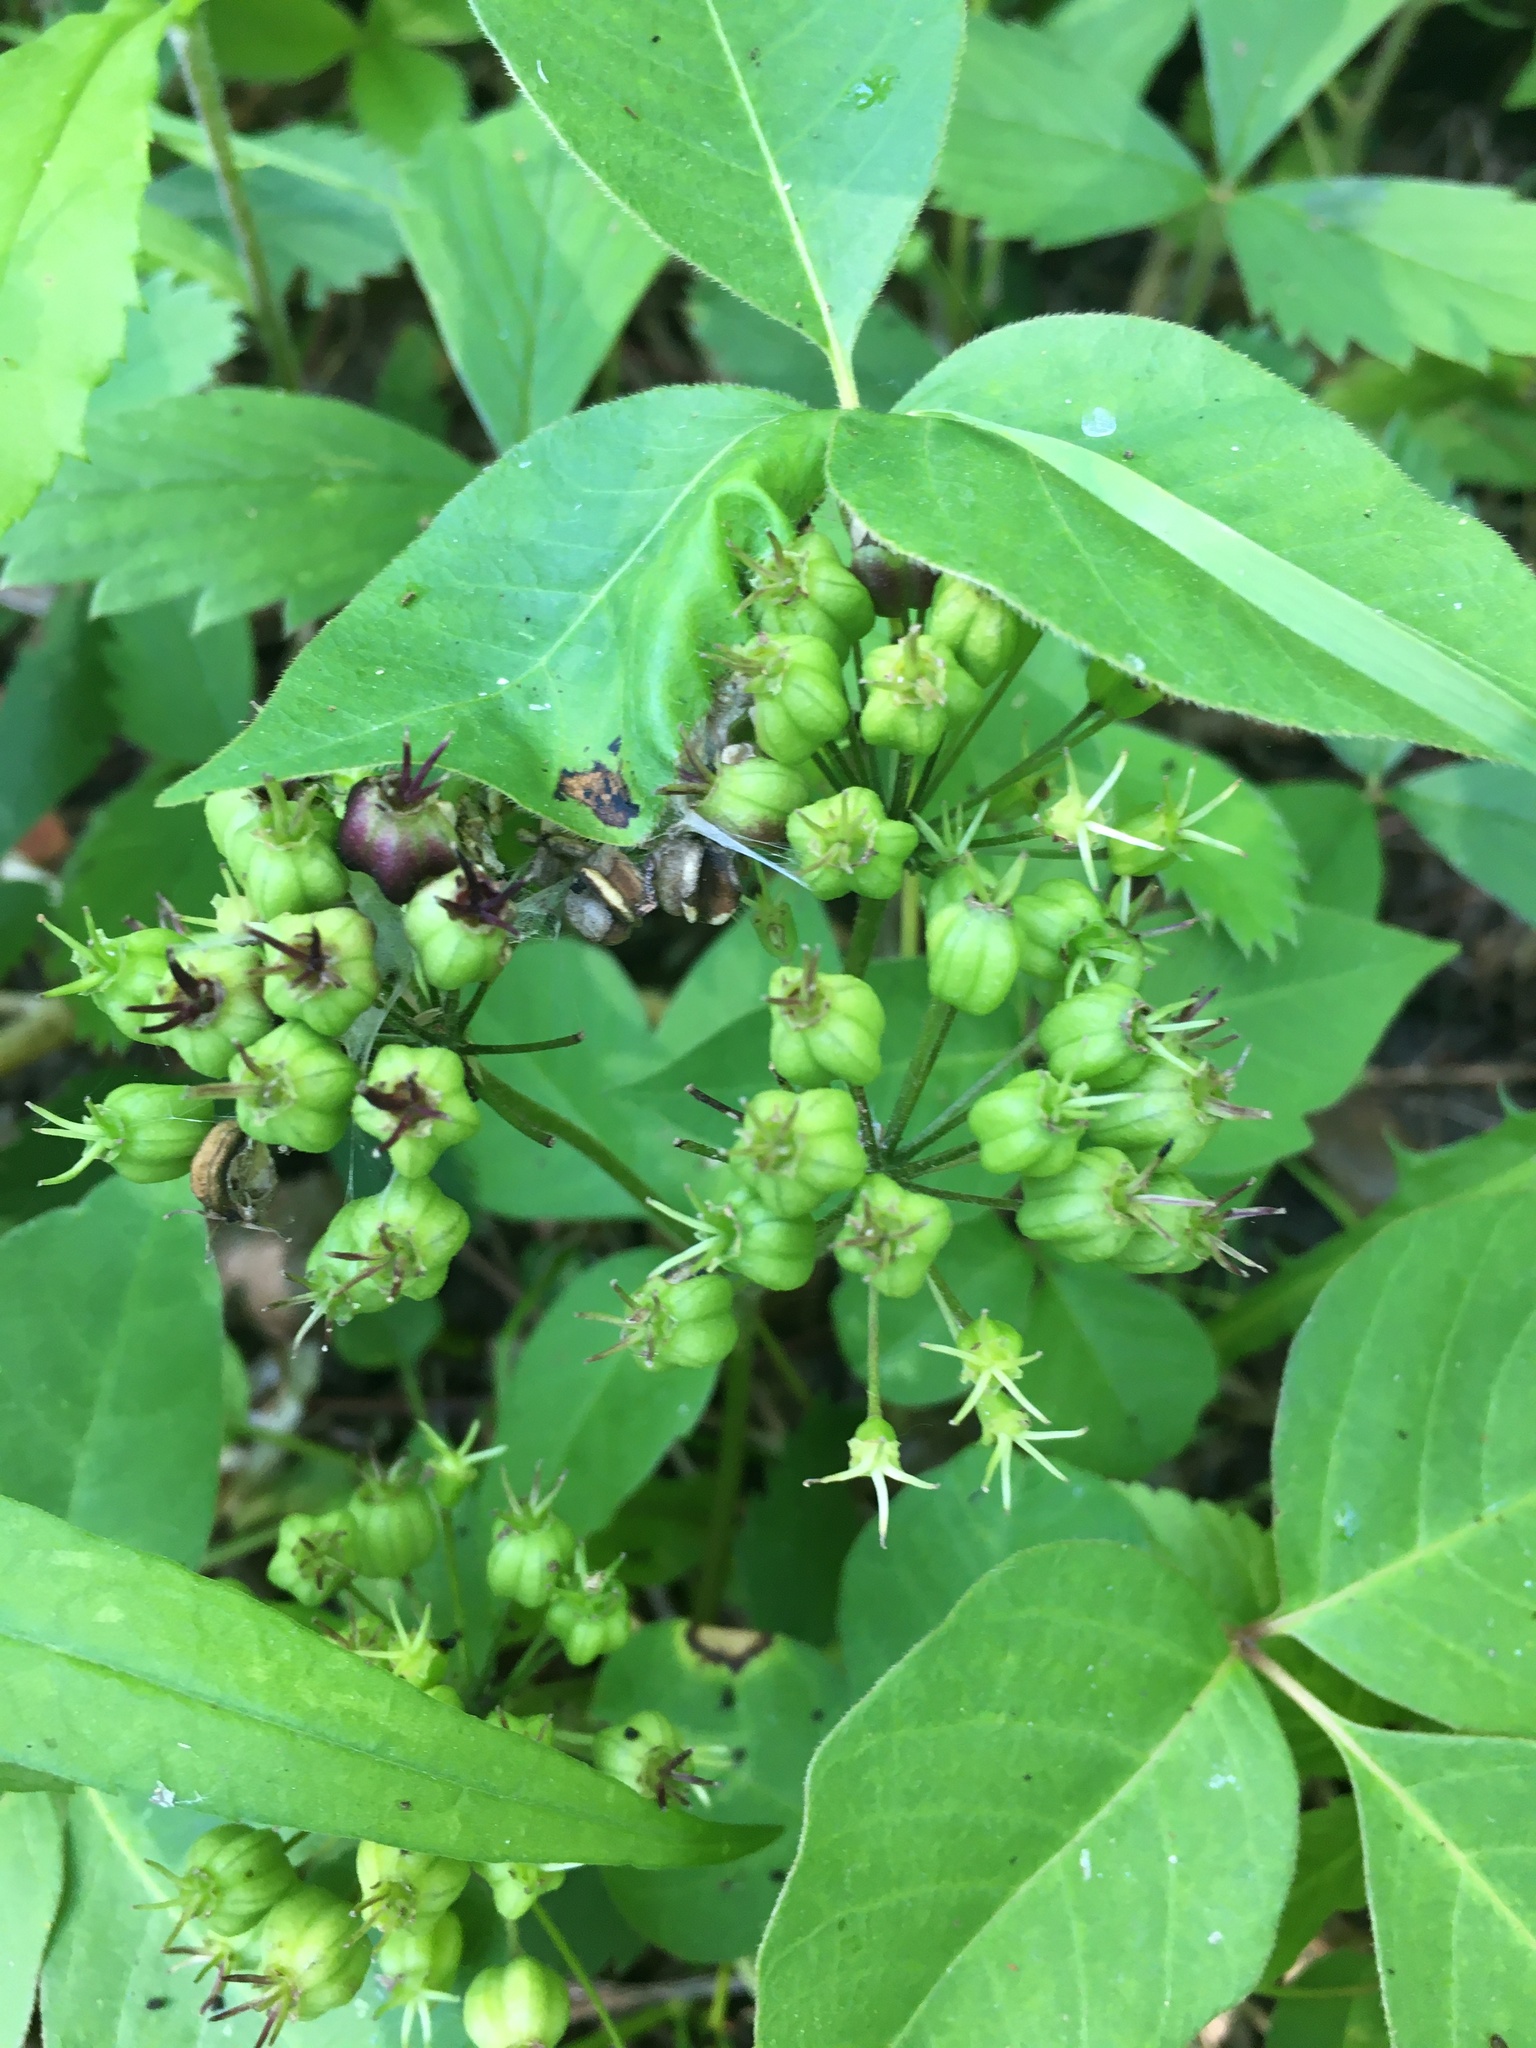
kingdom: Plantae
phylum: Tracheophyta
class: Magnoliopsida
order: Apiales
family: Araliaceae
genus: Aralia
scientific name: Aralia nudicaulis
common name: Wild sarsaparilla
